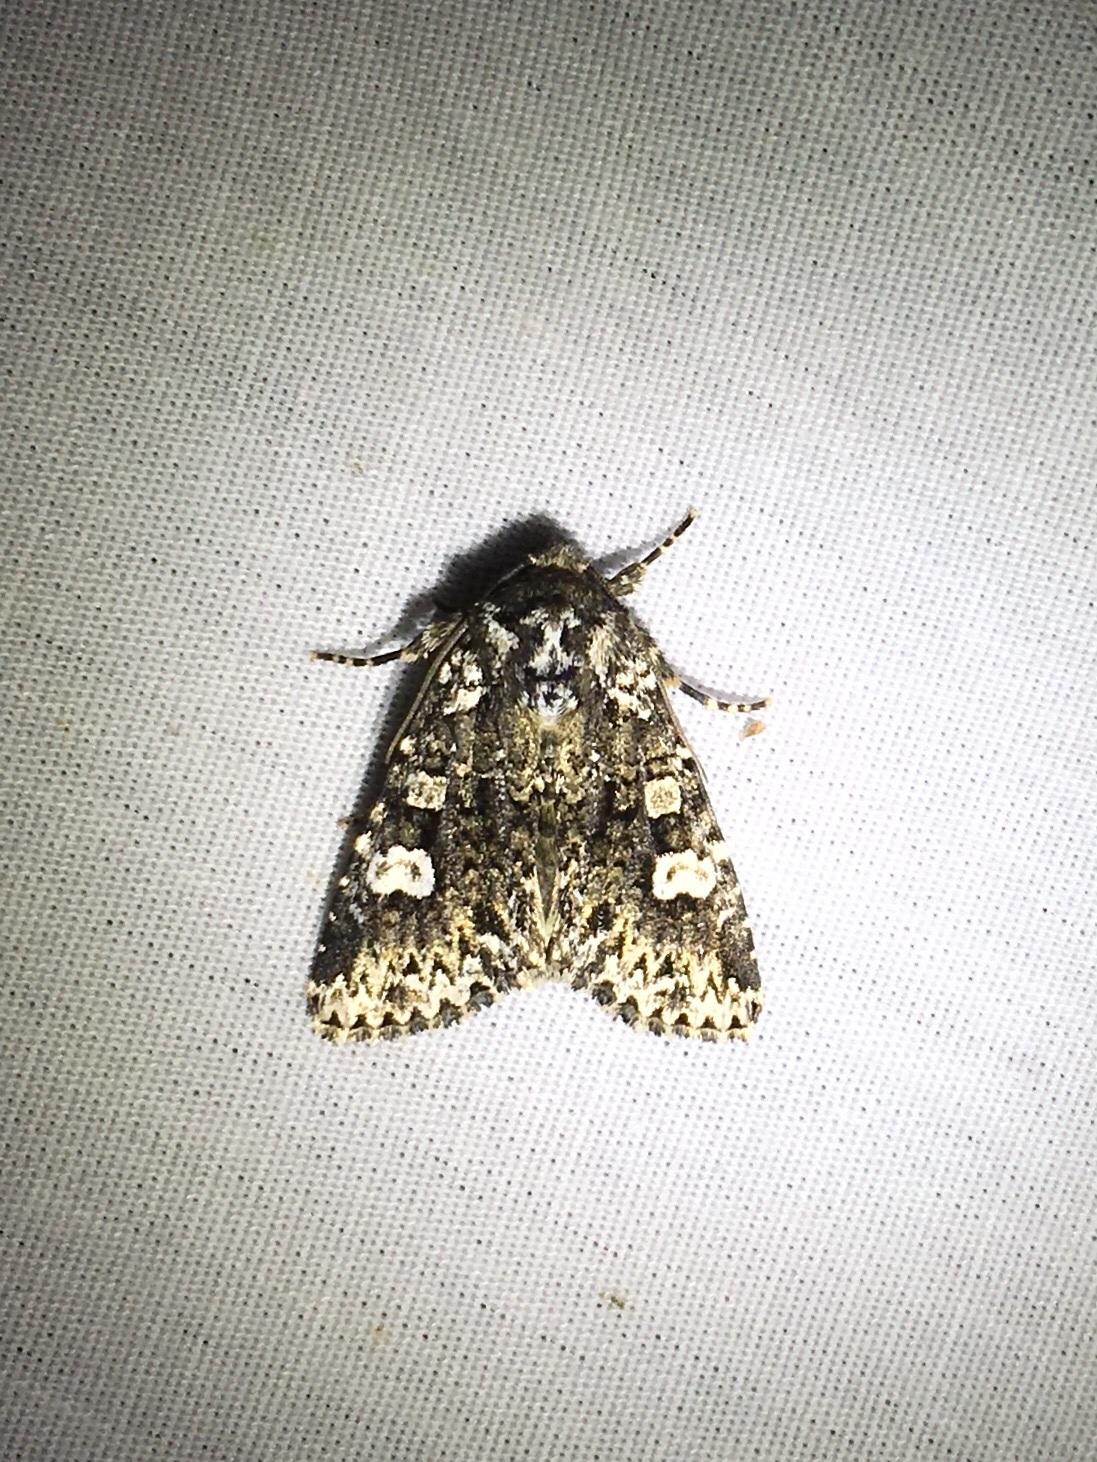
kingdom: Animalia
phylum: Arthropoda
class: Insecta
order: Lepidoptera
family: Noctuidae
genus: Melanchra
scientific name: Melanchra adjuncta
